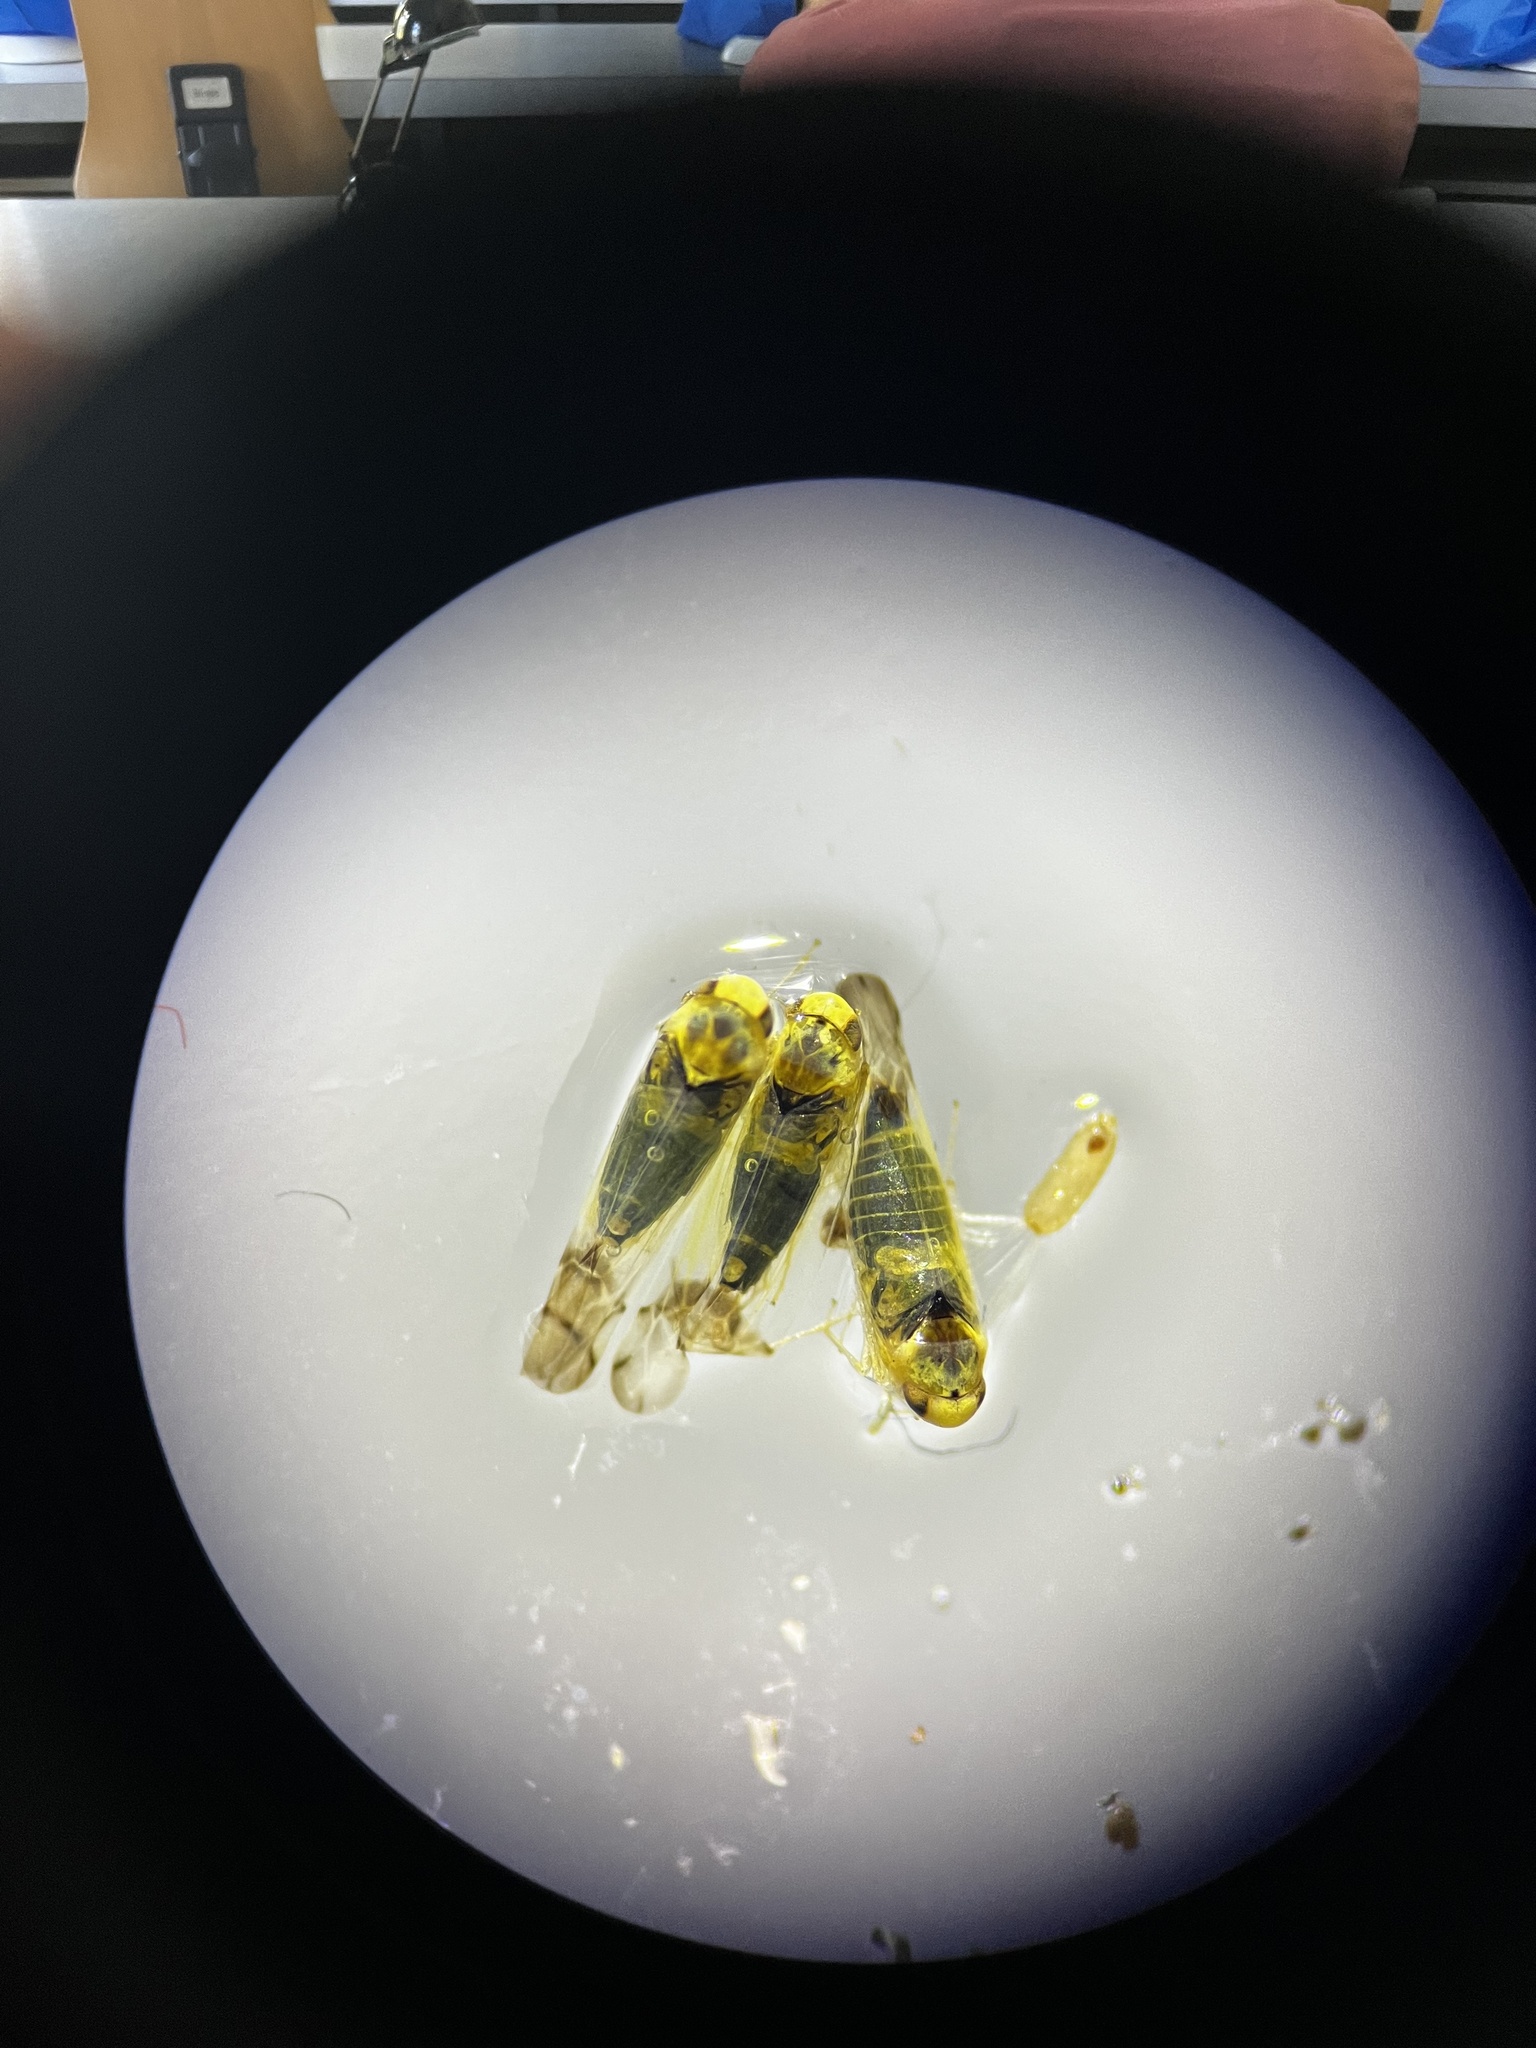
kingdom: Animalia
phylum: Arthropoda
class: Insecta
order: Hemiptera
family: Cicadellidae
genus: Ribautiana
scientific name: Ribautiana ulmi
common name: European elm leafhopper
